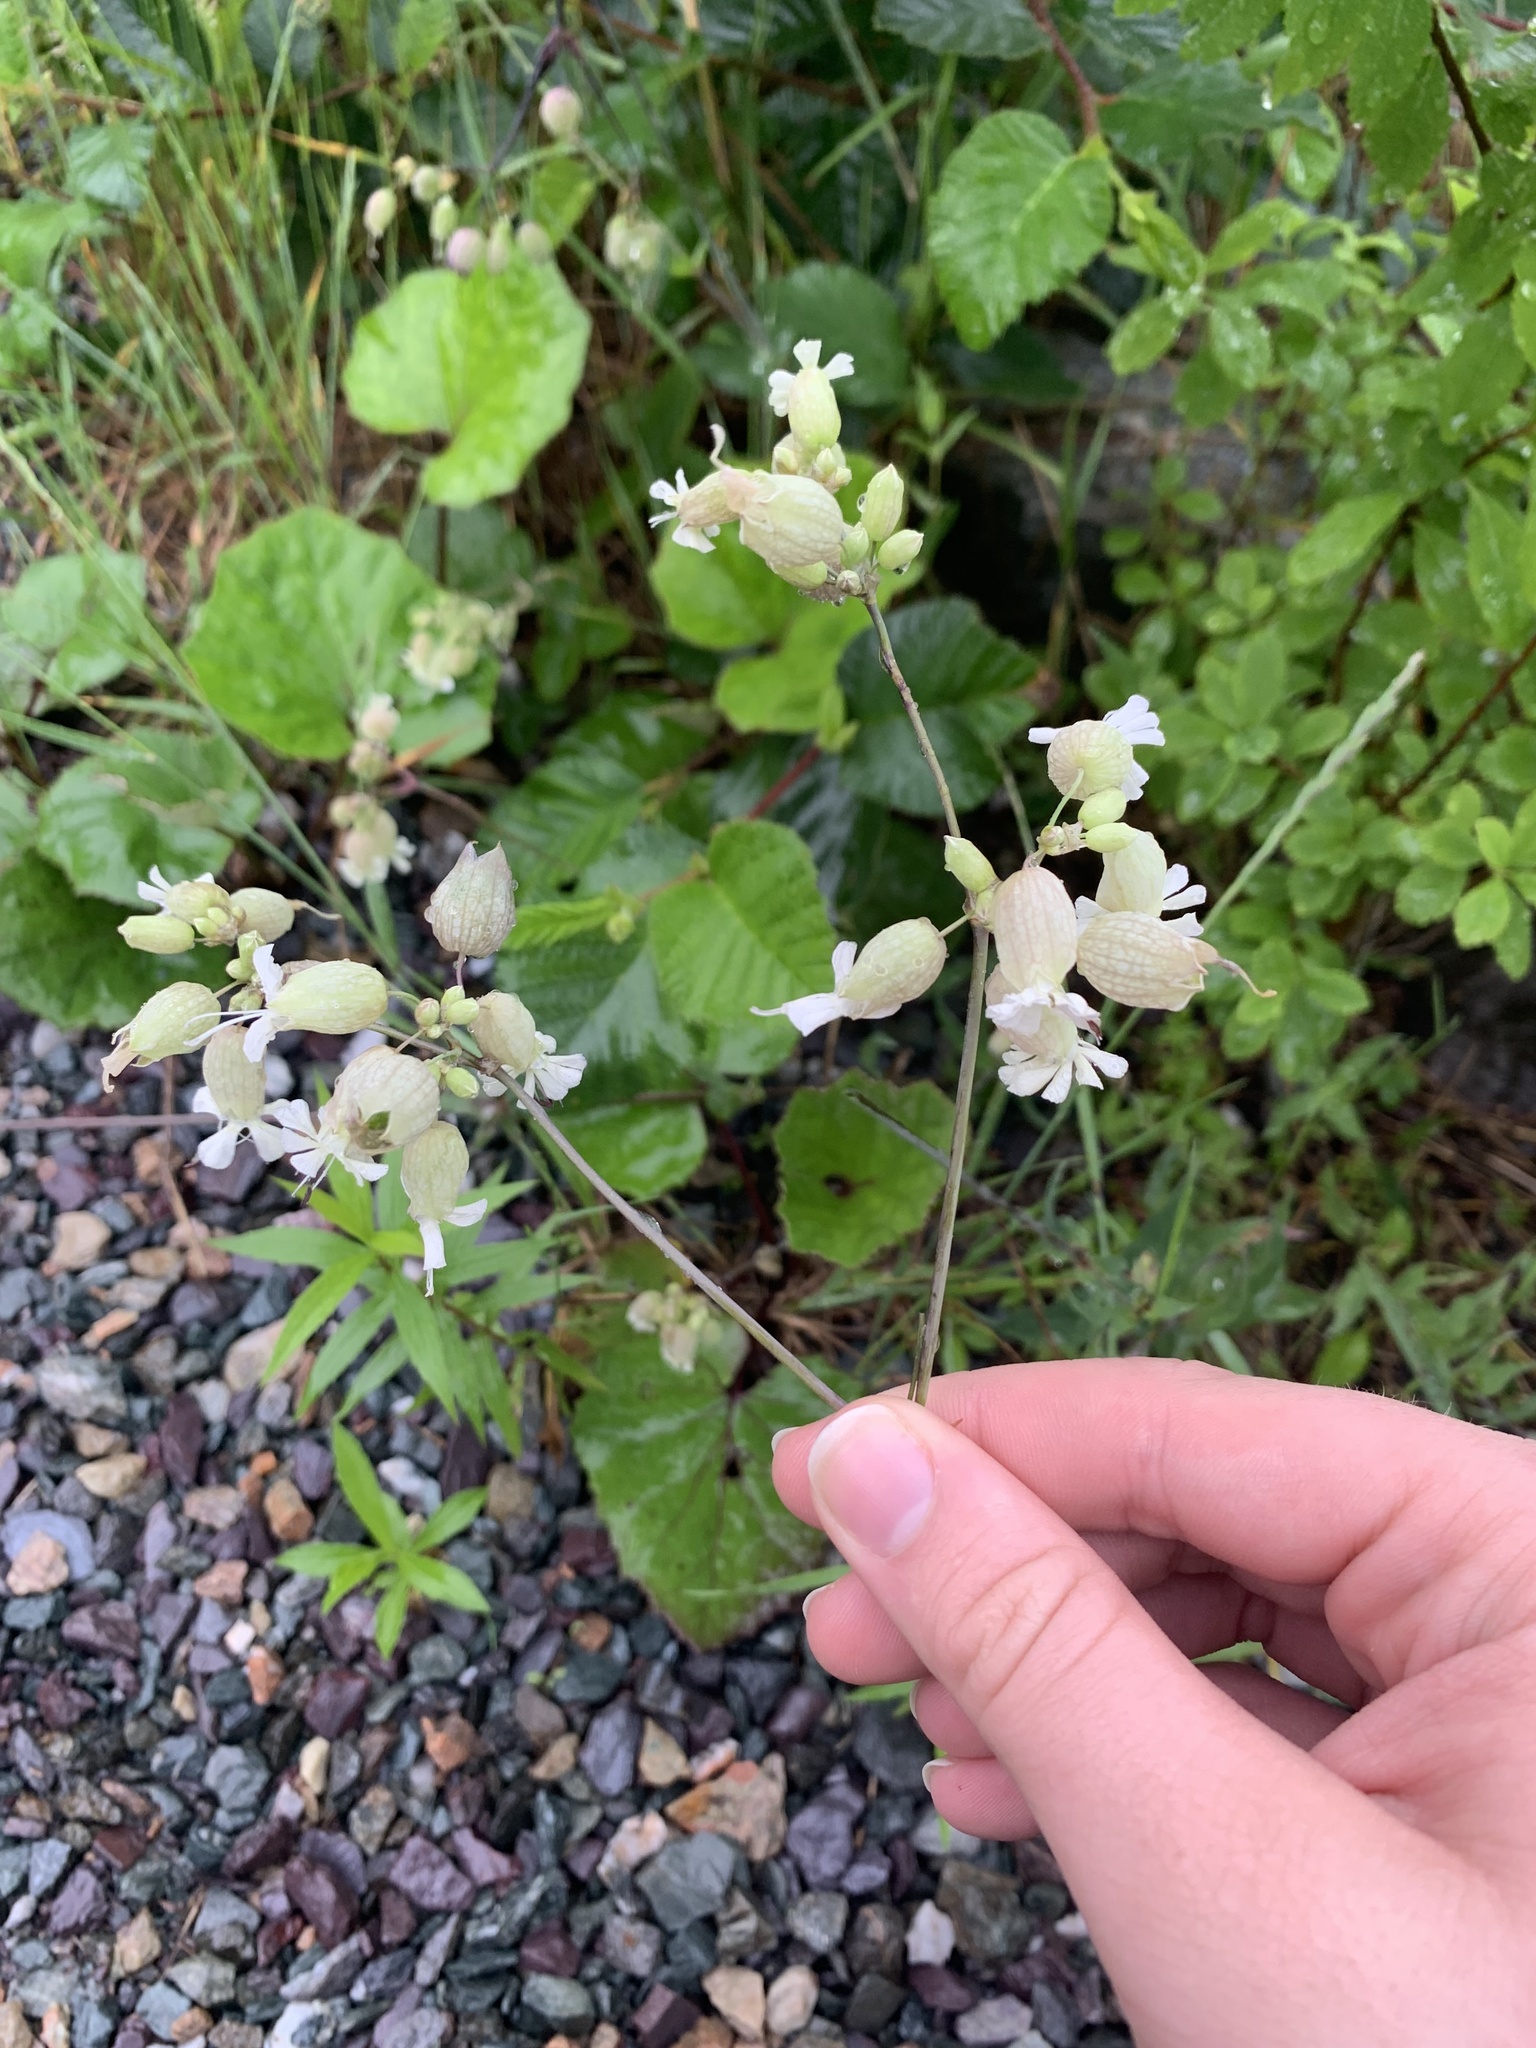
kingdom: Plantae
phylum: Tracheophyta
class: Magnoliopsida
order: Caryophyllales
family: Caryophyllaceae
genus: Silene
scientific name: Silene vulgaris
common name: Bladder campion
